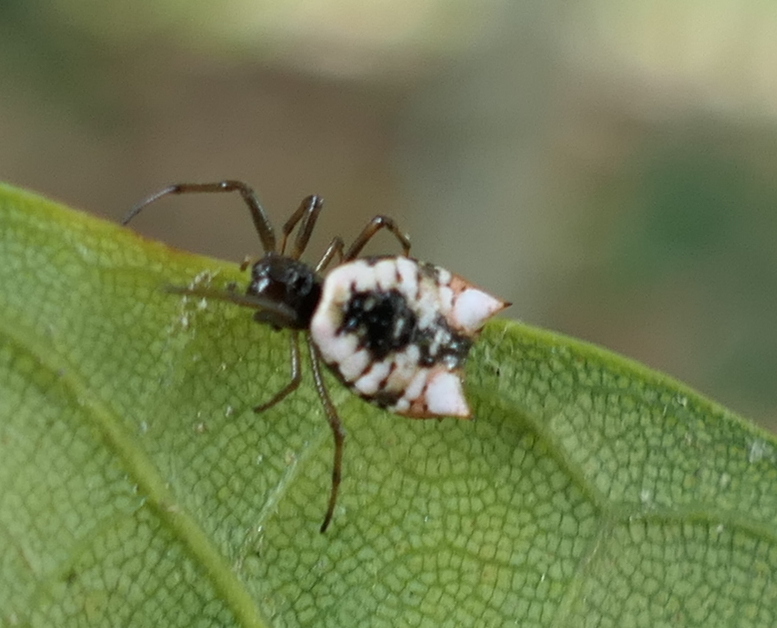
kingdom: Animalia
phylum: Arthropoda
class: Arachnida
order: Araneae
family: Araneidae
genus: Micrathena
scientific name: Micrathena patruelis
